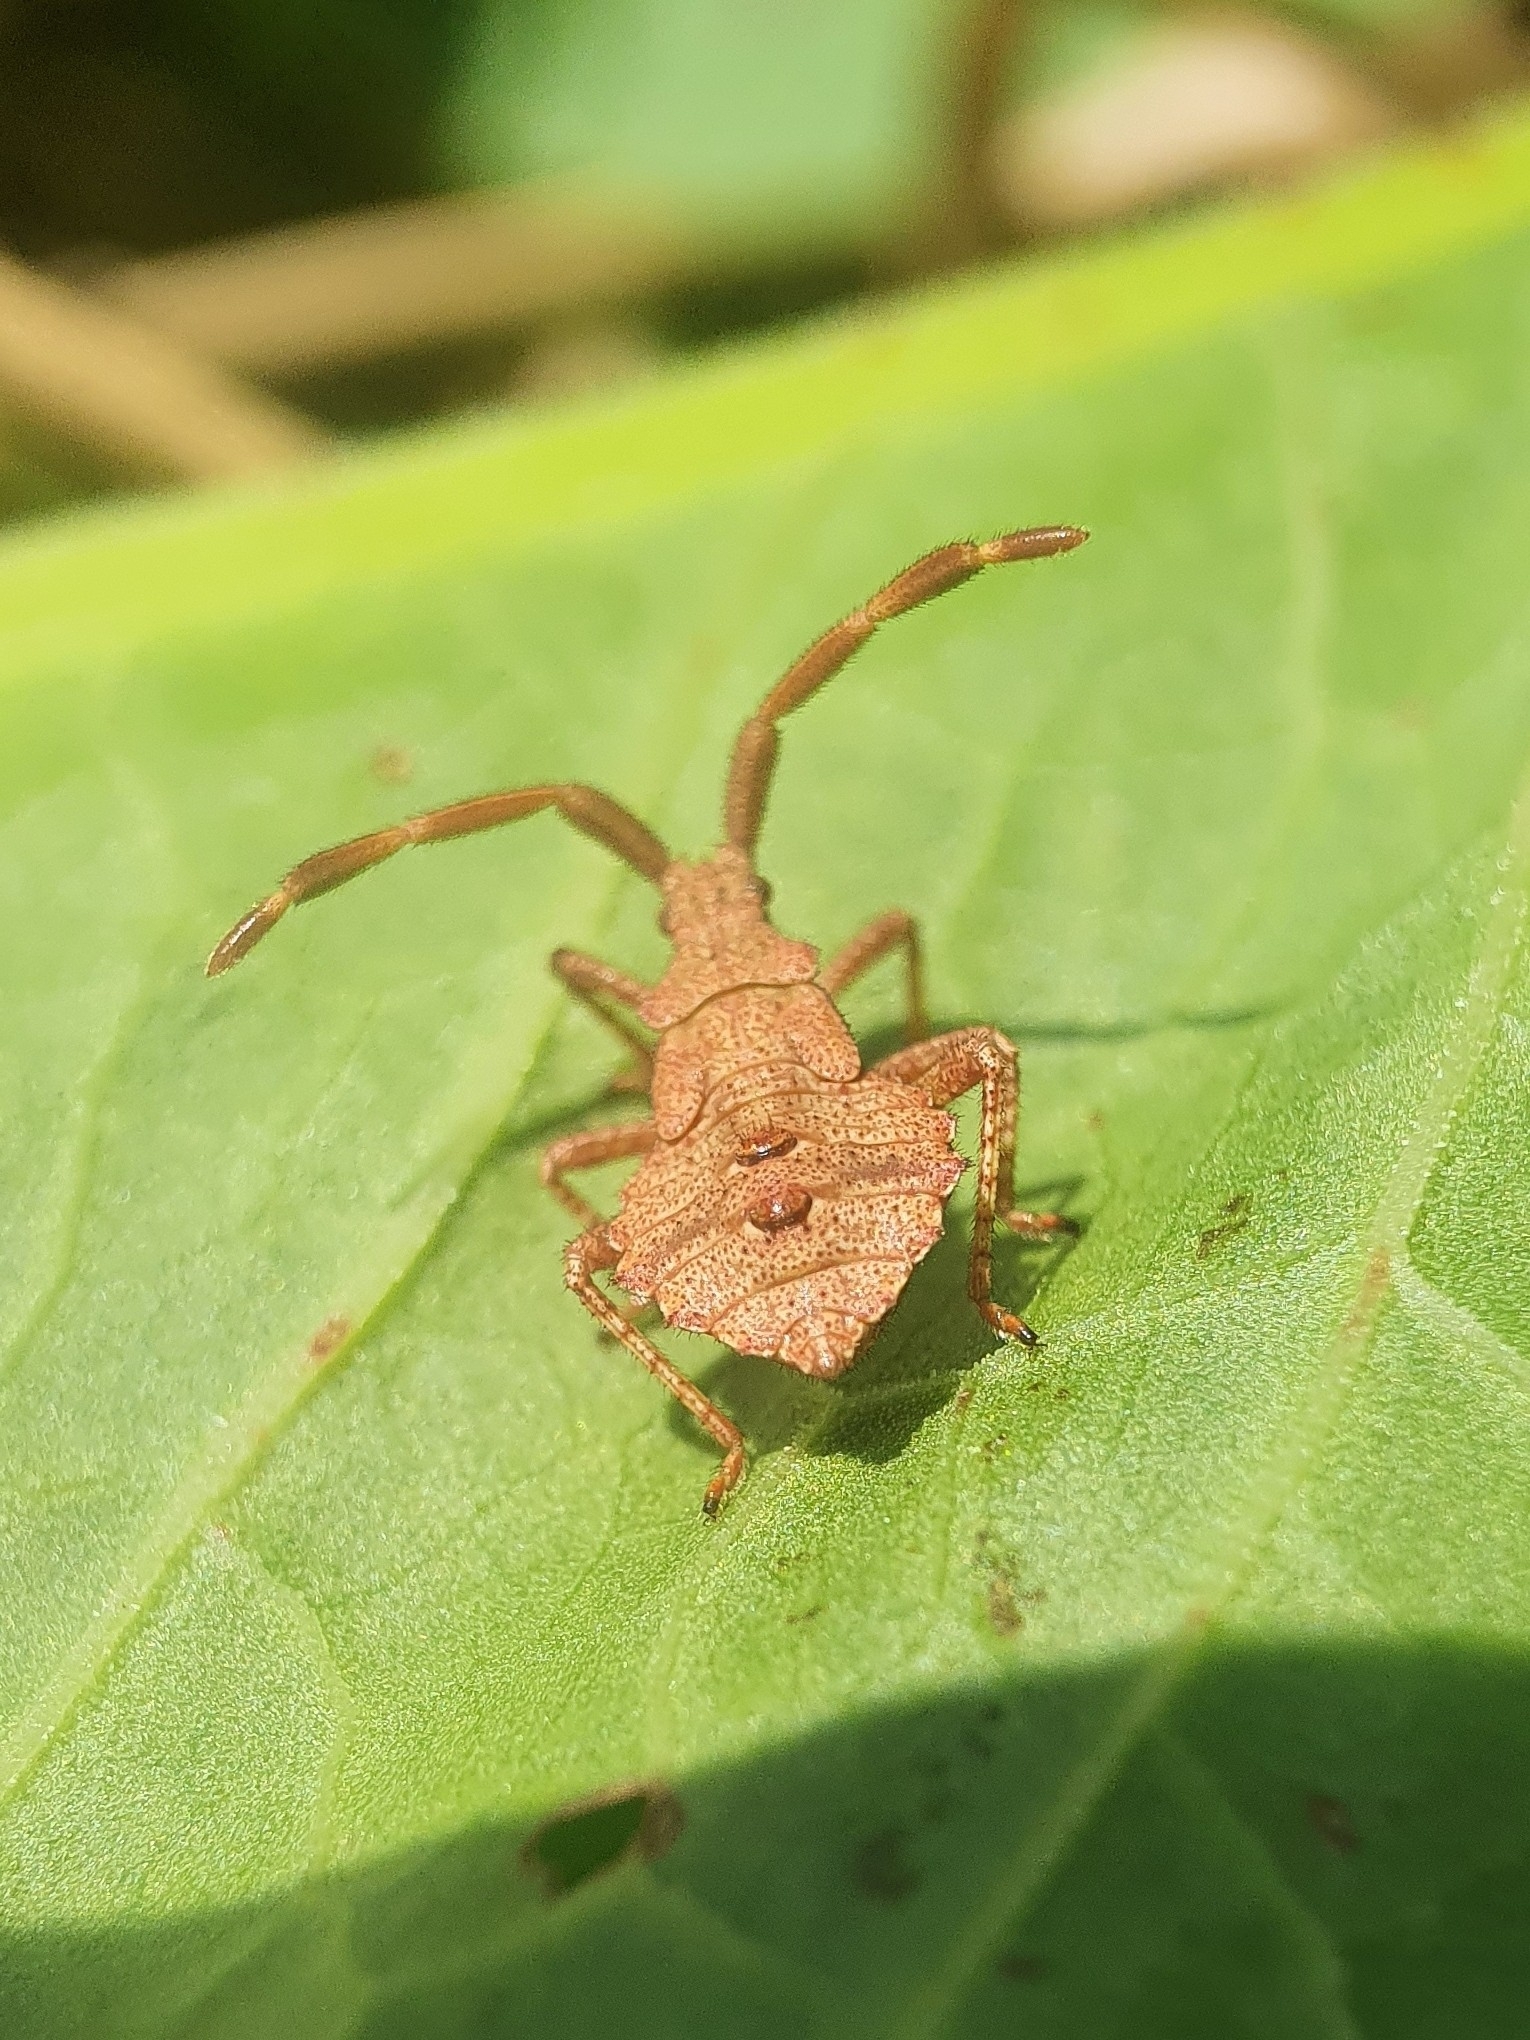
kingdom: Animalia
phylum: Arthropoda
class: Insecta
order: Hemiptera
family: Coreidae
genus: Coreus
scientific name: Coreus marginatus
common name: Dock bug
